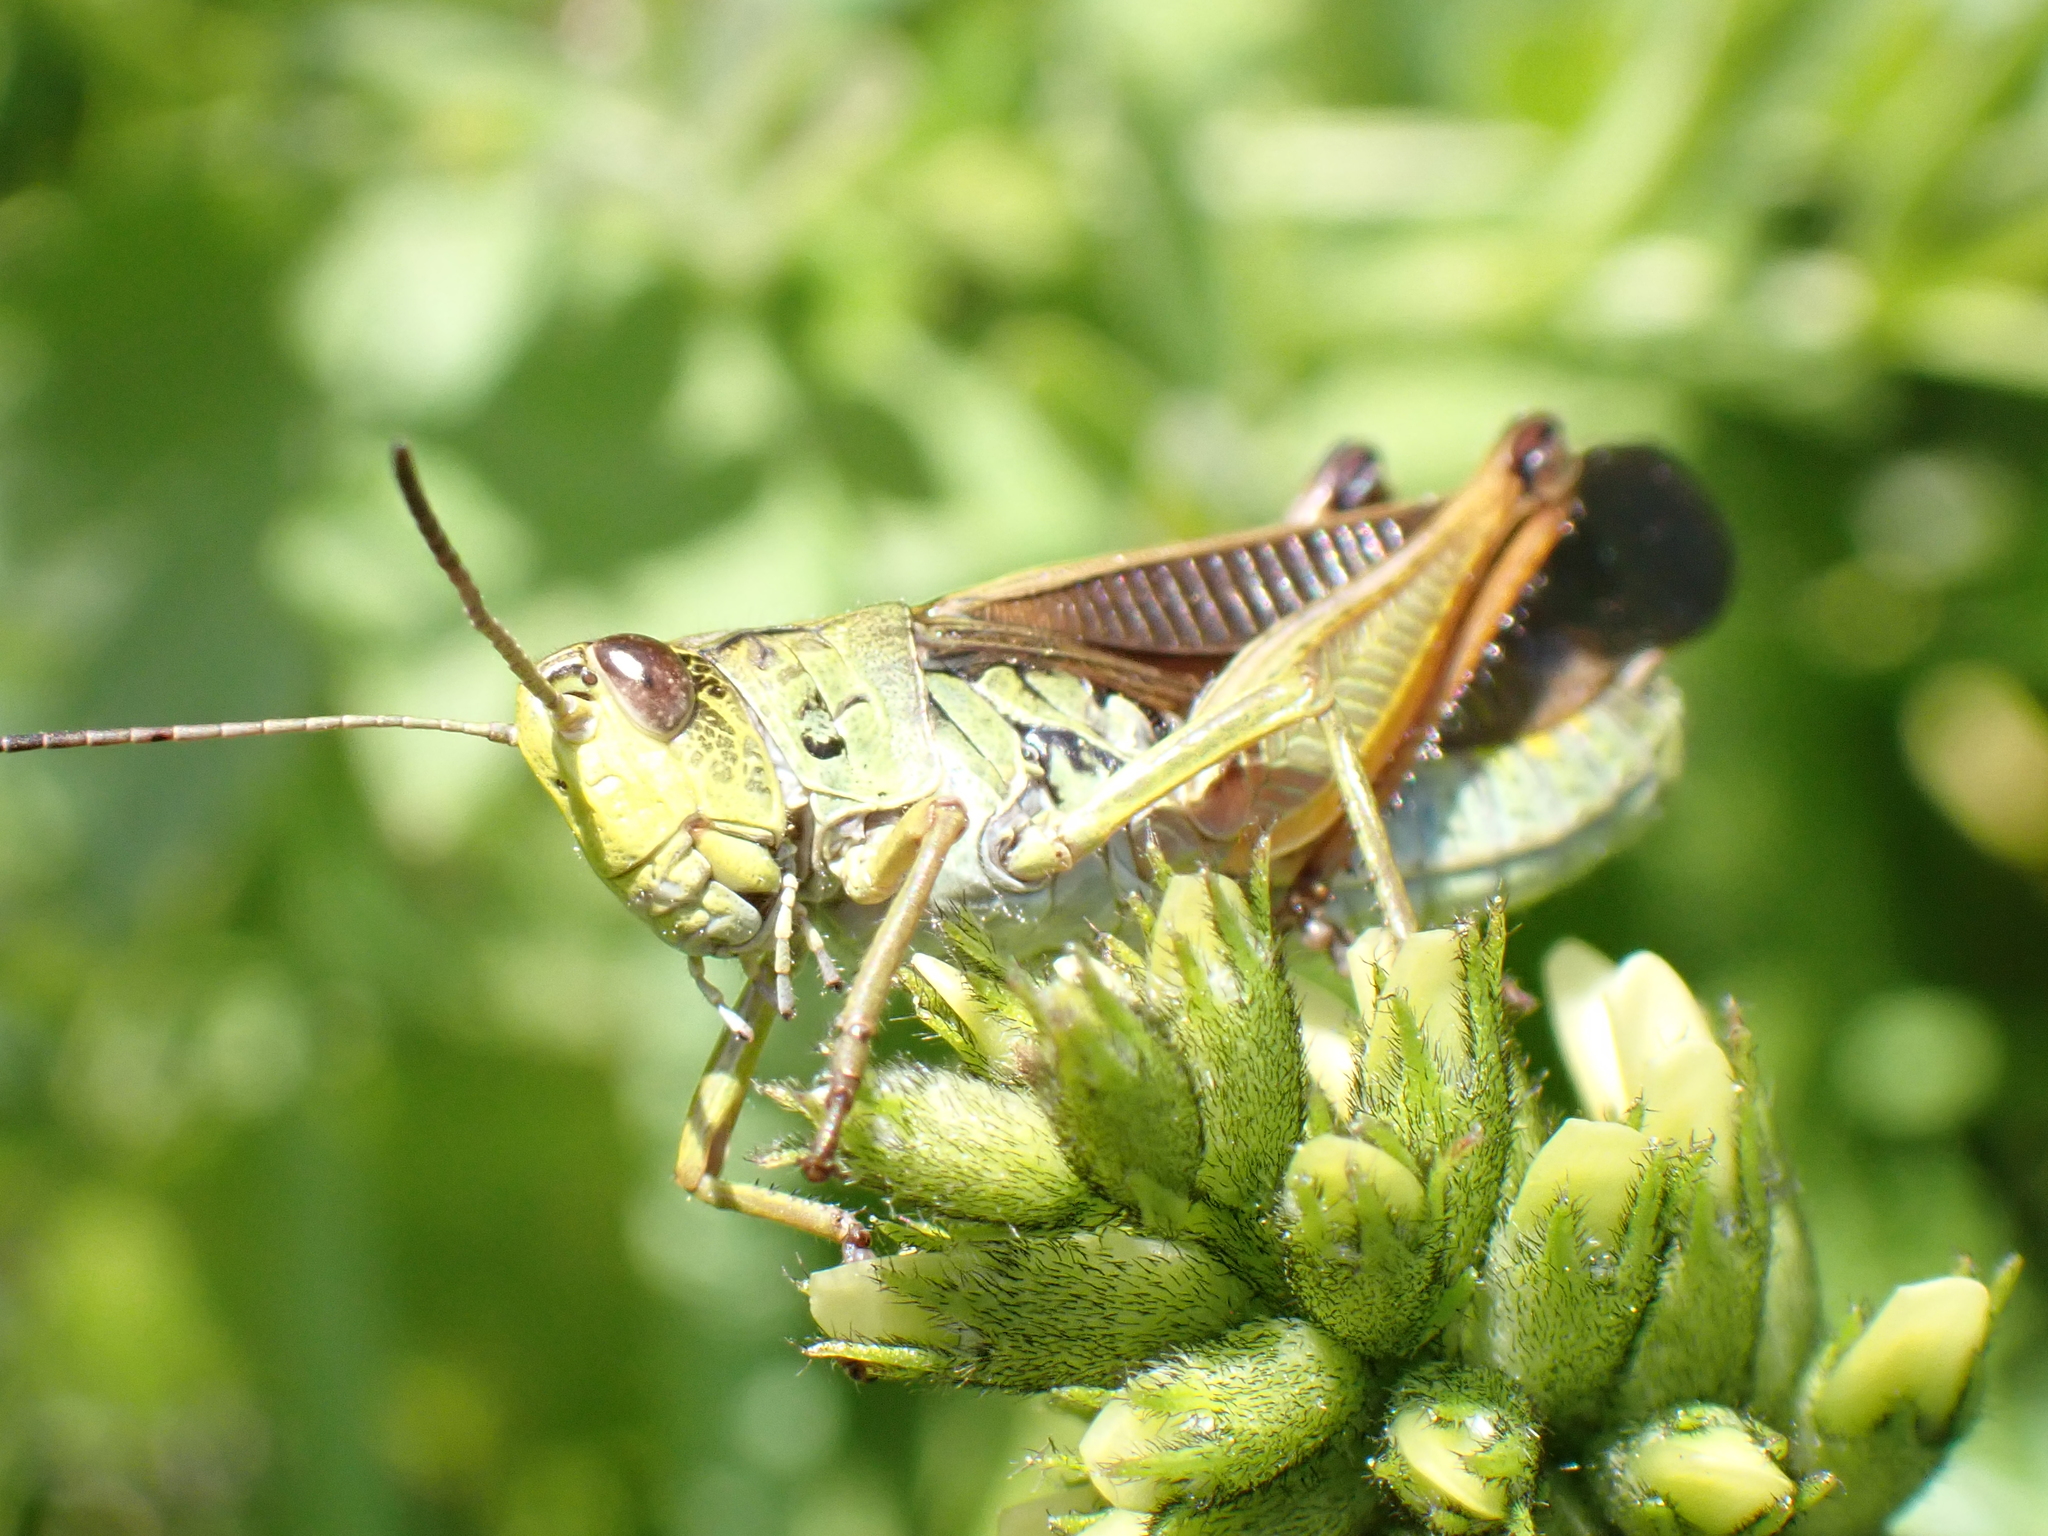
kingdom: Animalia
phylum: Arthropoda
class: Insecta
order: Orthoptera
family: Acrididae
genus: Stauroderus
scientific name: Stauroderus scalaris
